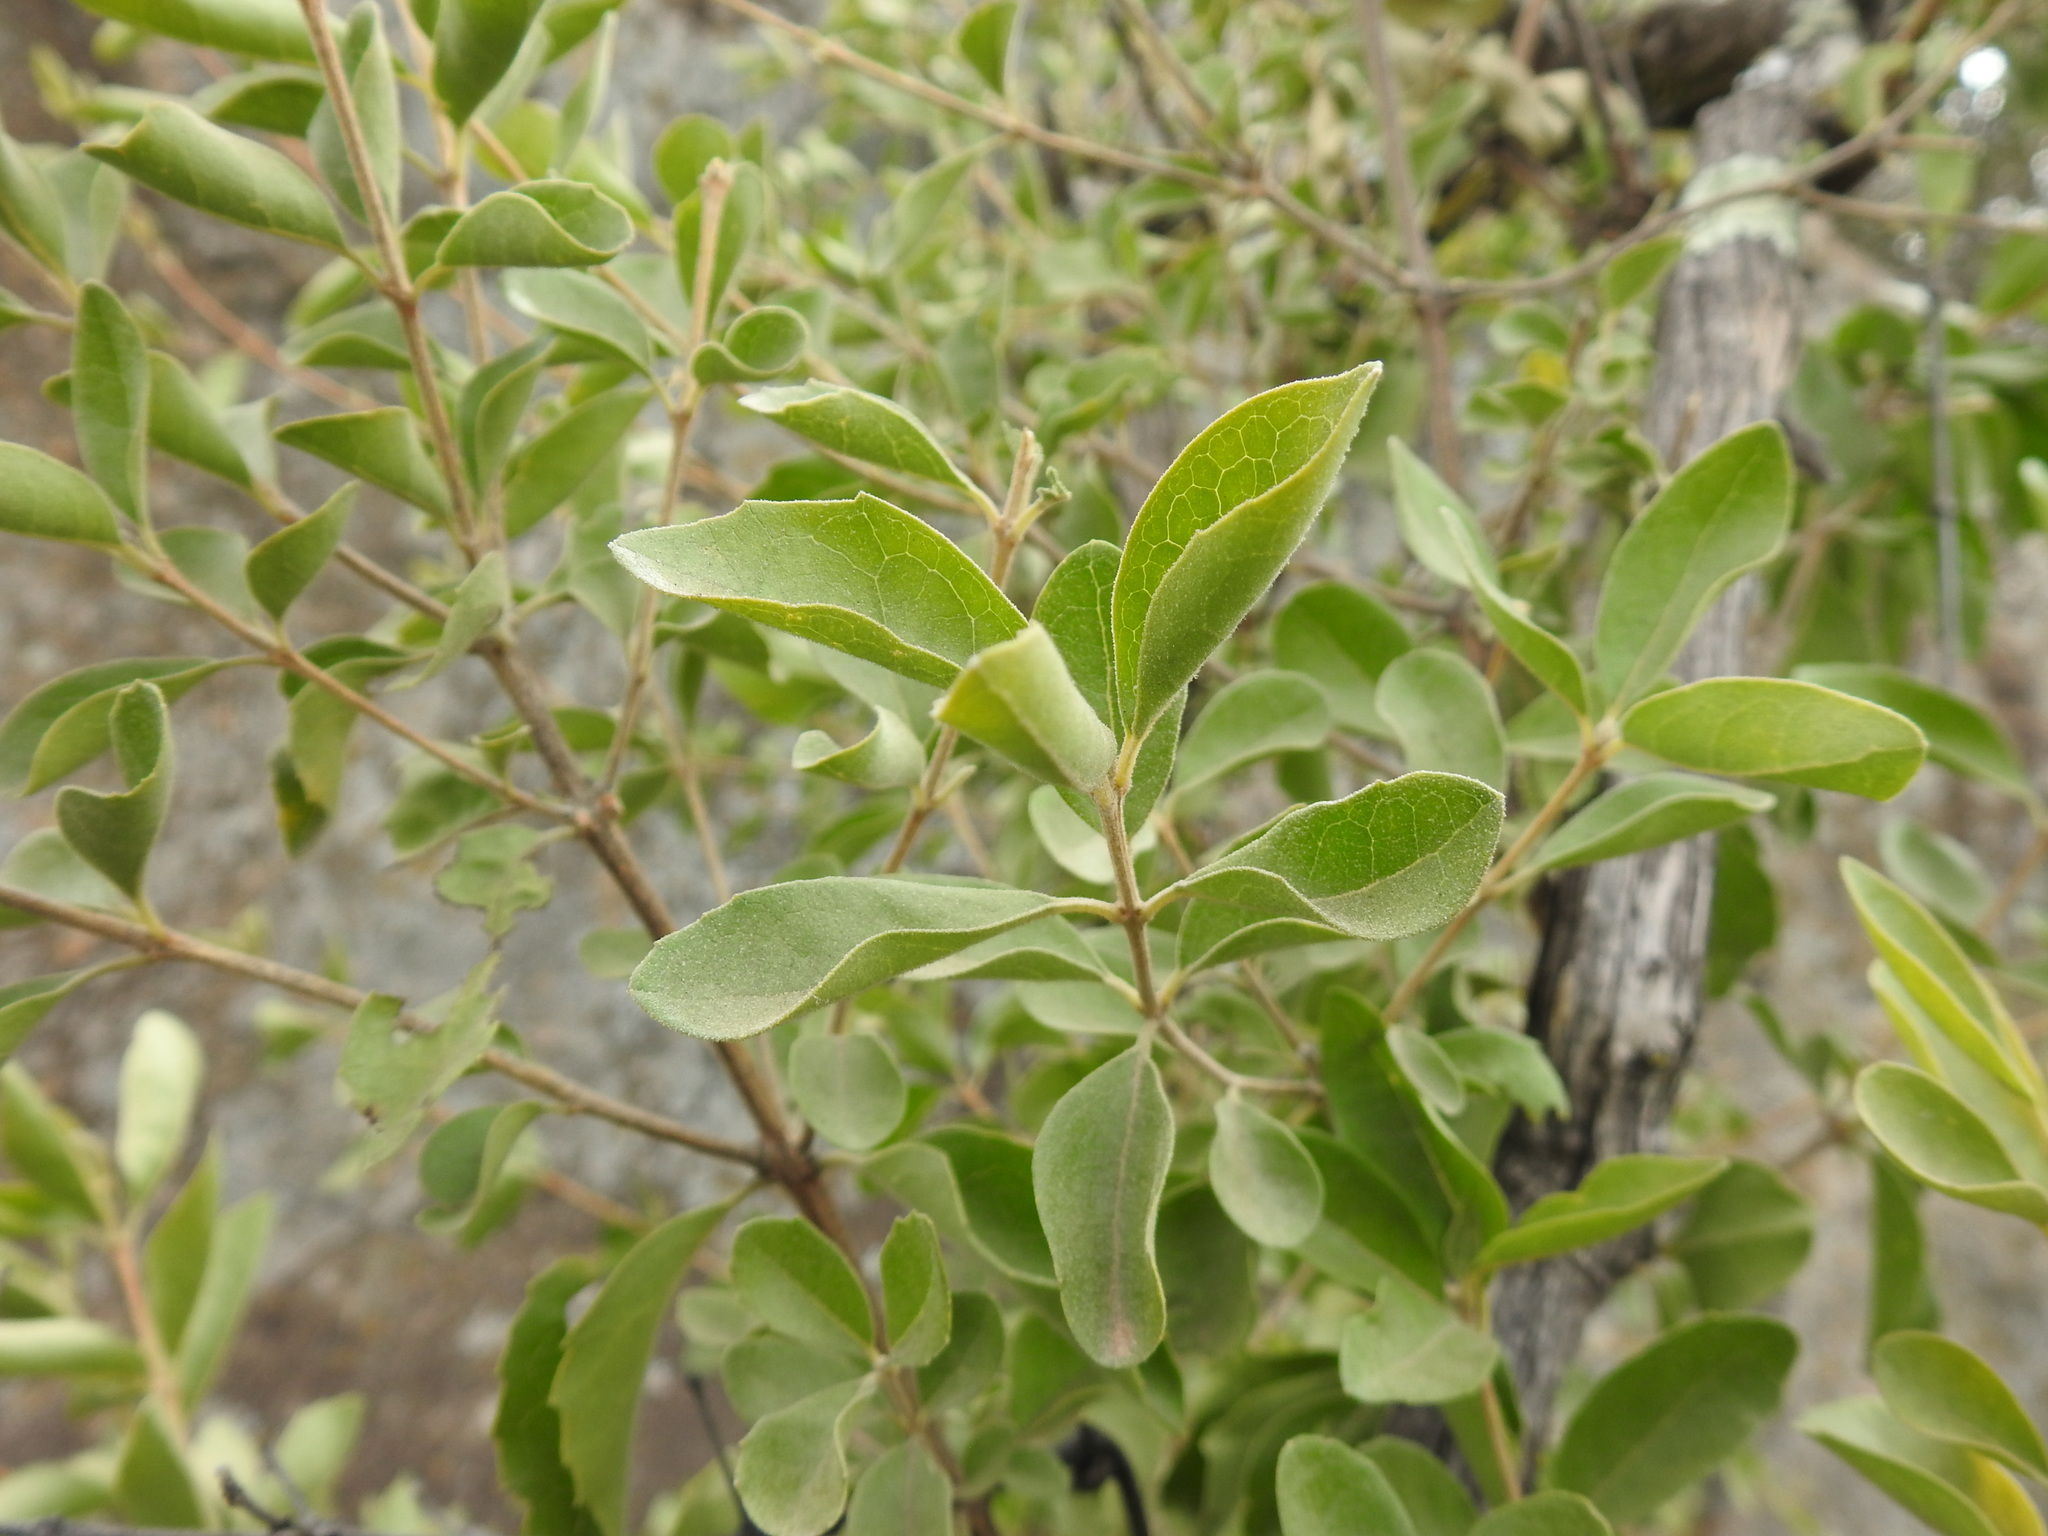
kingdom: Plantae
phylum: Tracheophyta
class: Magnoliopsida
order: Ericales
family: Ebenaceae
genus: Diospyros
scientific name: Diospyros lycioides
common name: Red star apple
